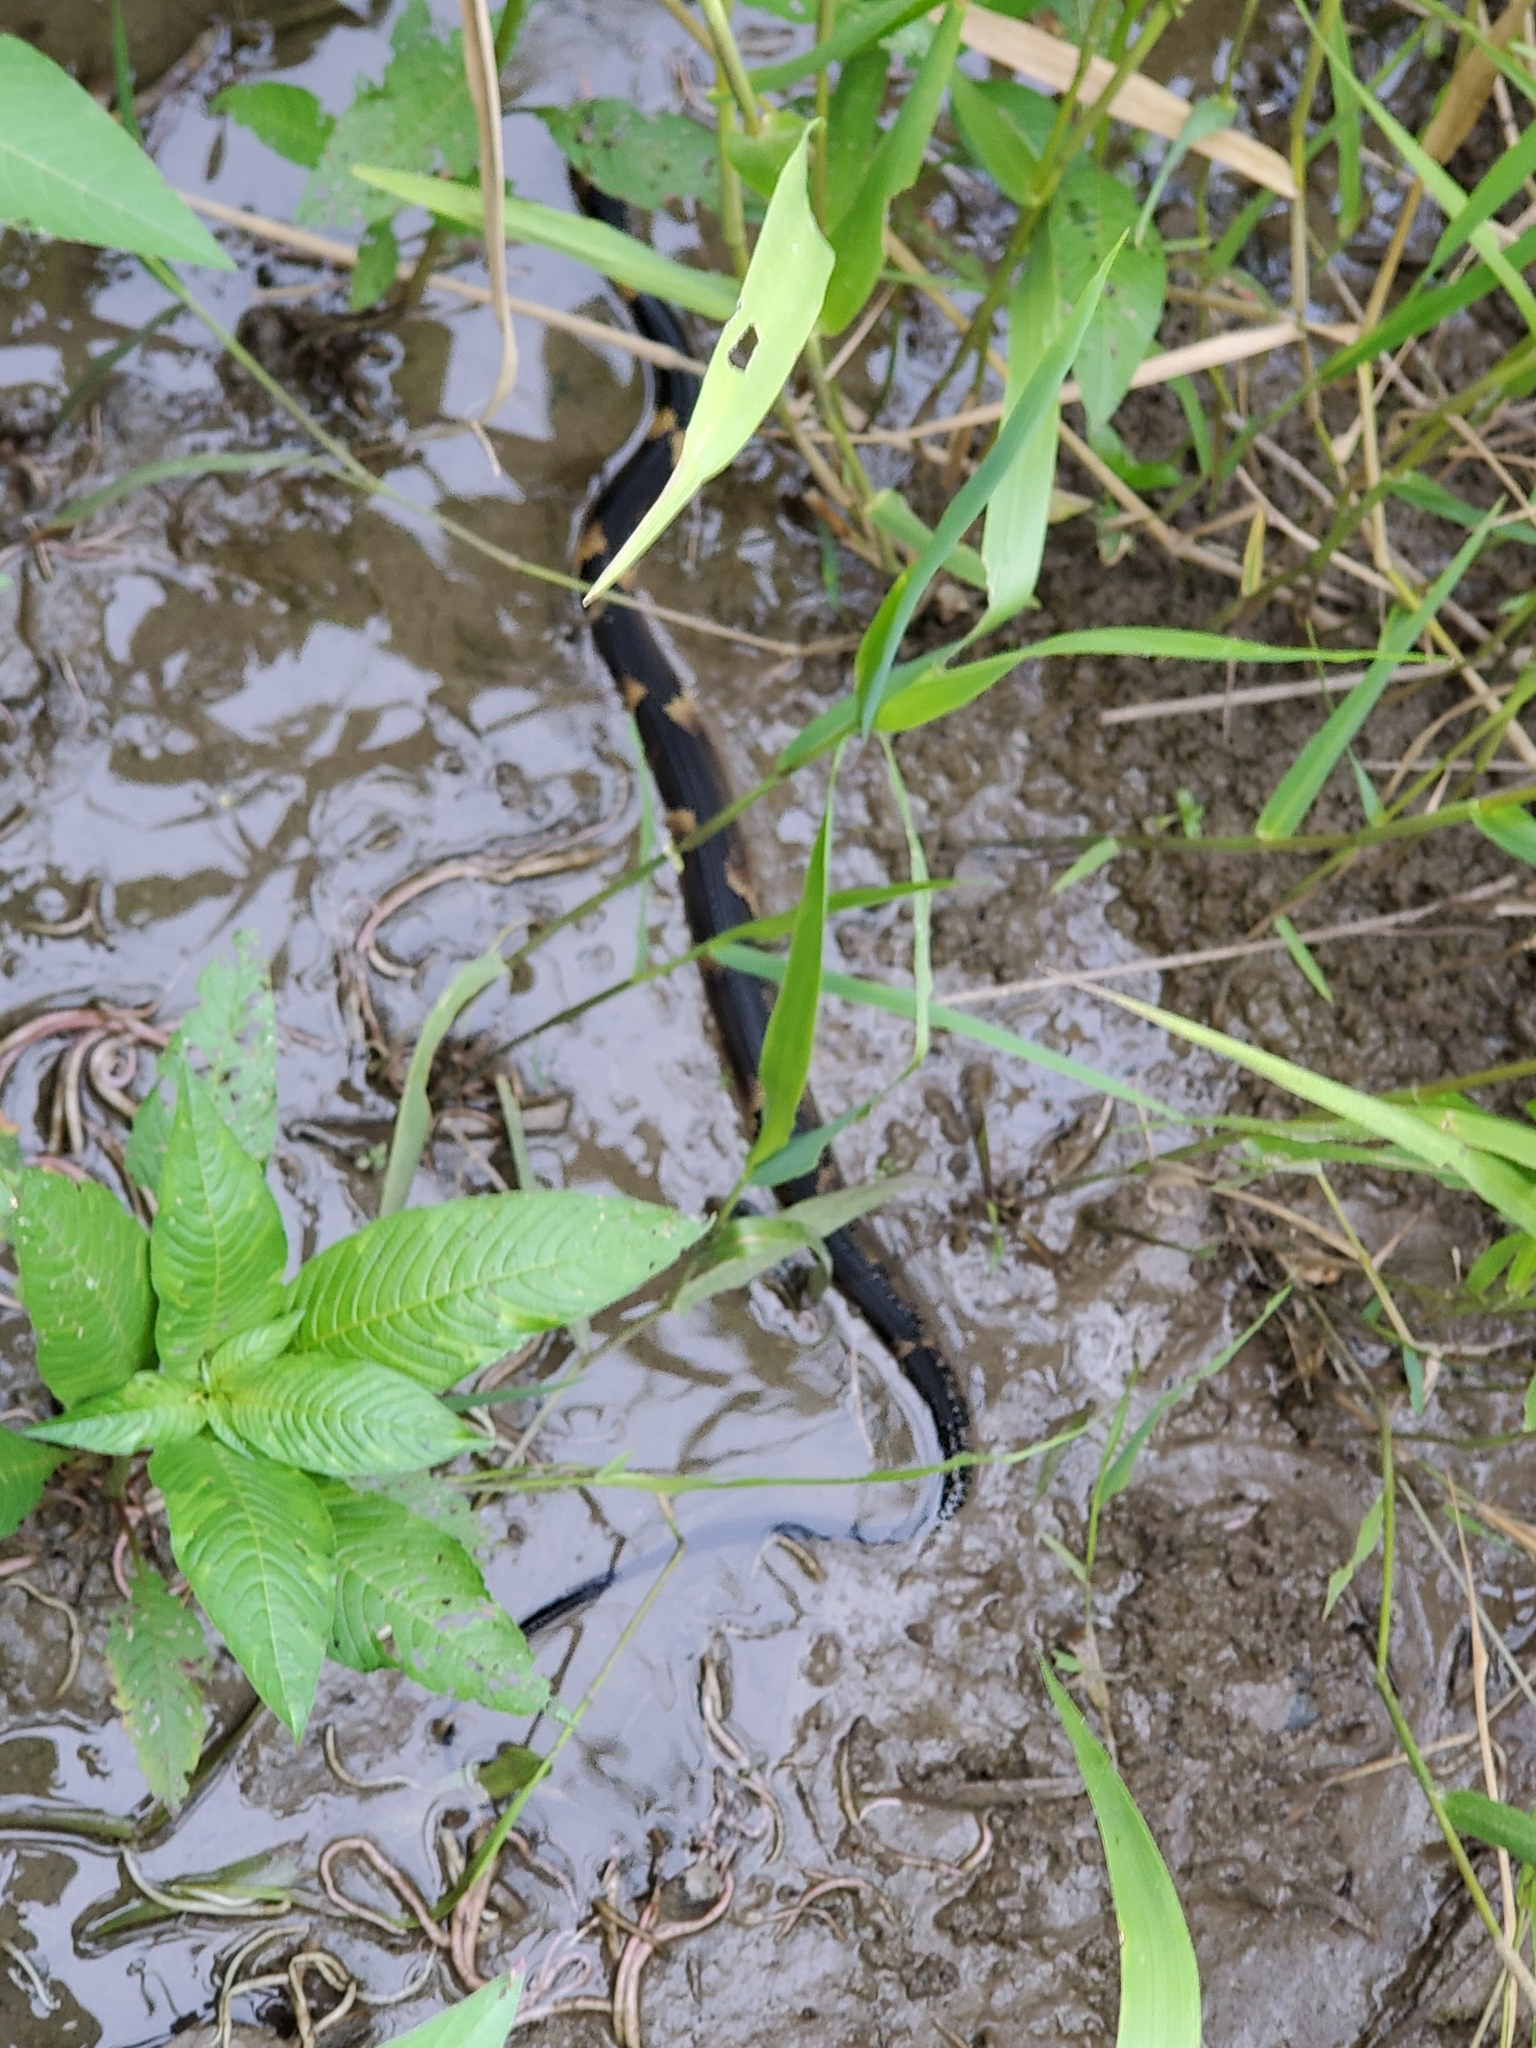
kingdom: Animalia
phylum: Chordata
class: Squamata
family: Colubridae
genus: Nerodia
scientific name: Nerodia fasciata
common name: Southern water snake
